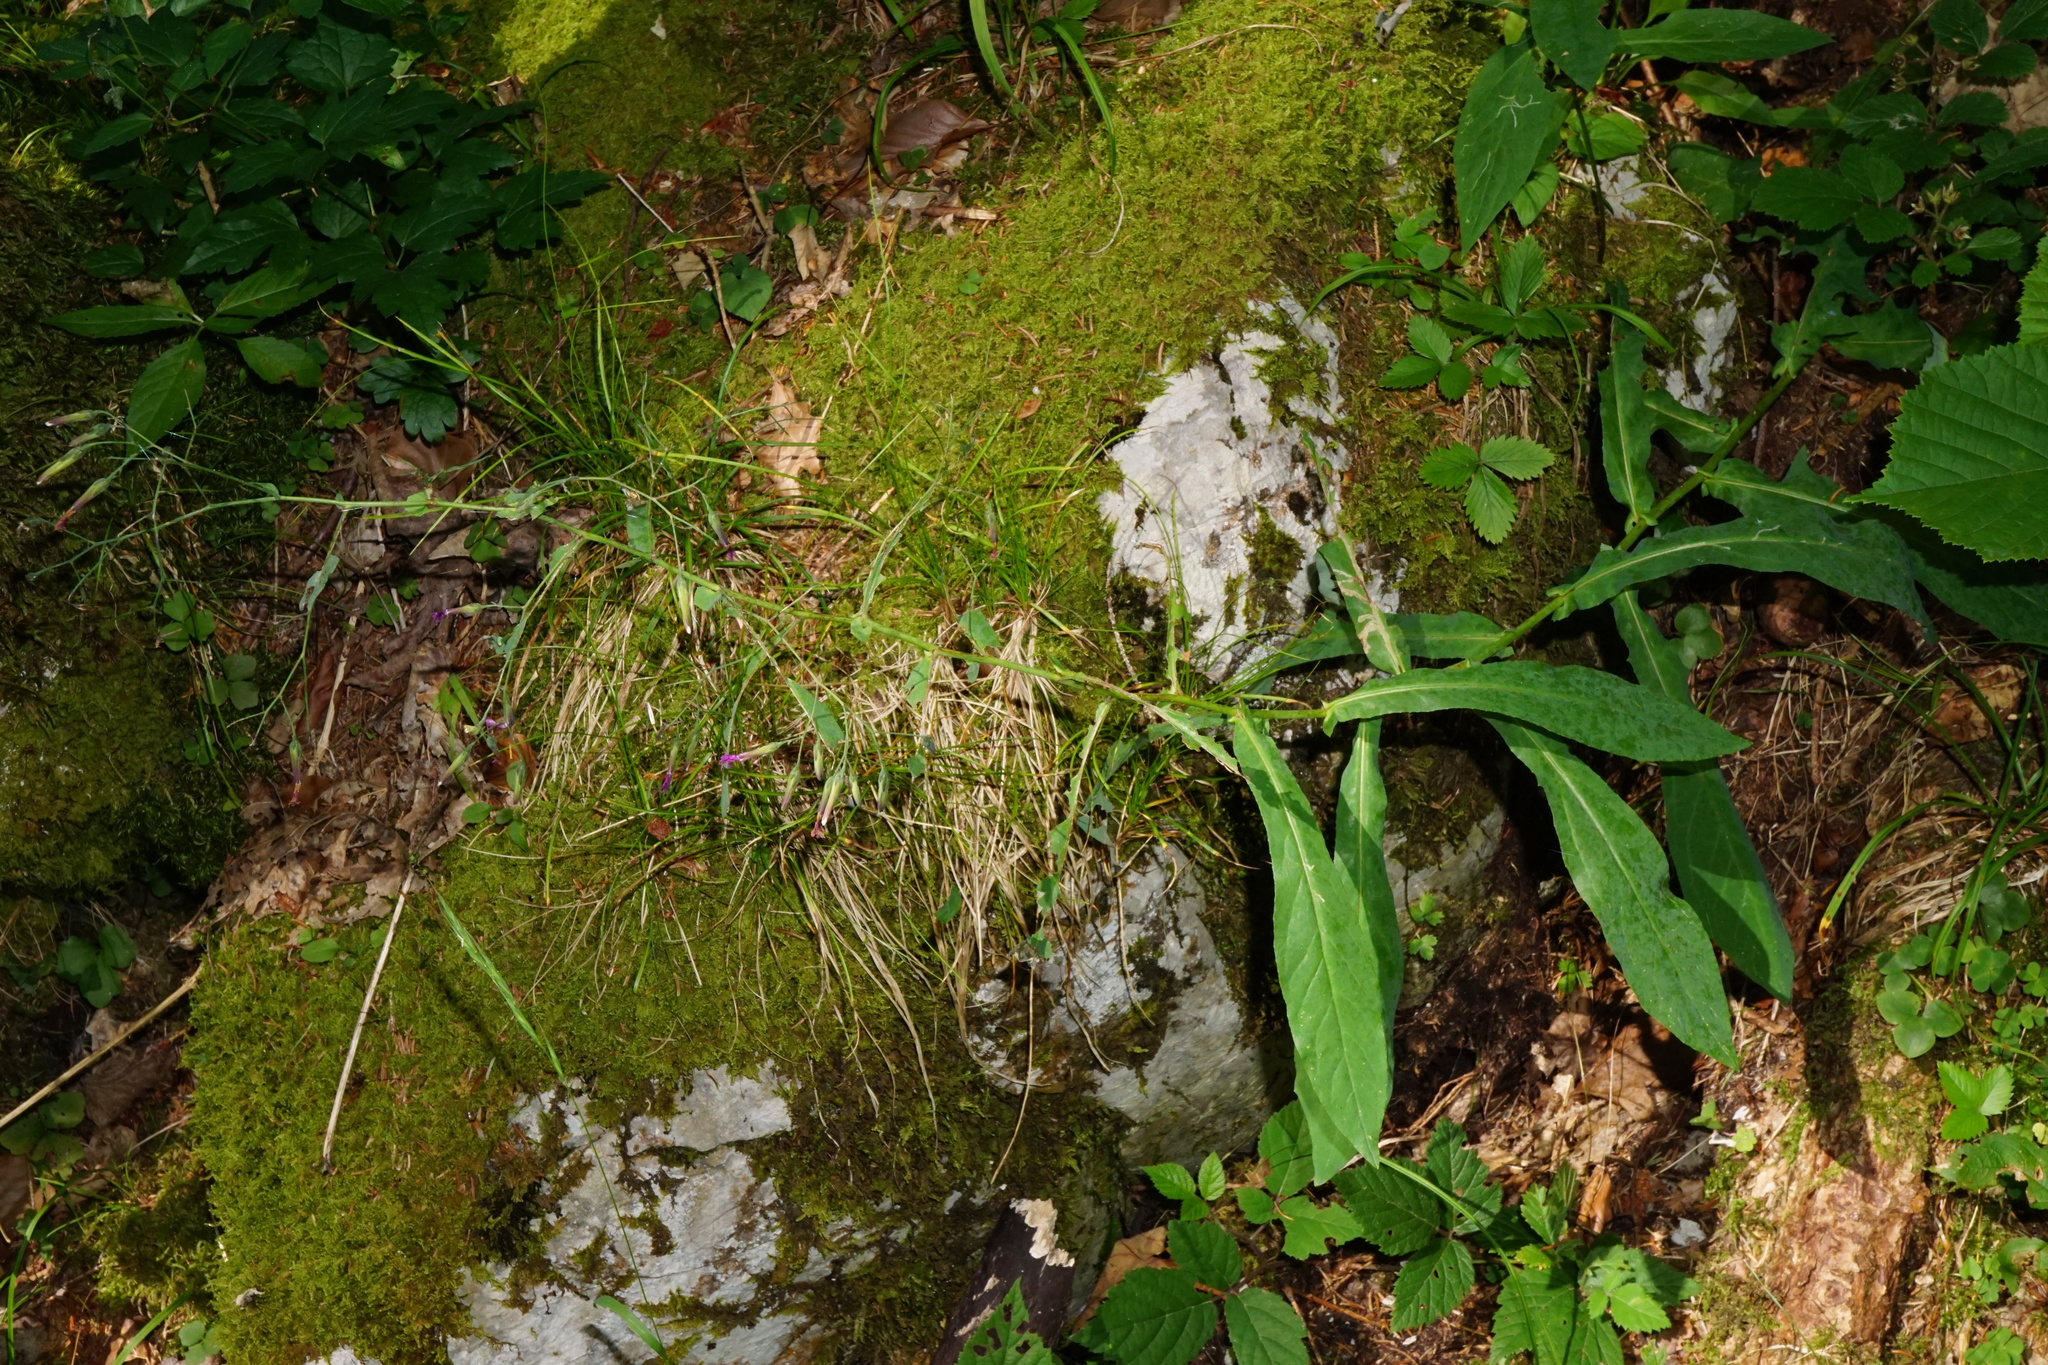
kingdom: Plantae
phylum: Tracheophyta
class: Magnoliopsida
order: Asterales
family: Asteraceae
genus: Prenanthes
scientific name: Prenanthes purpurea
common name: Purple lettuce
